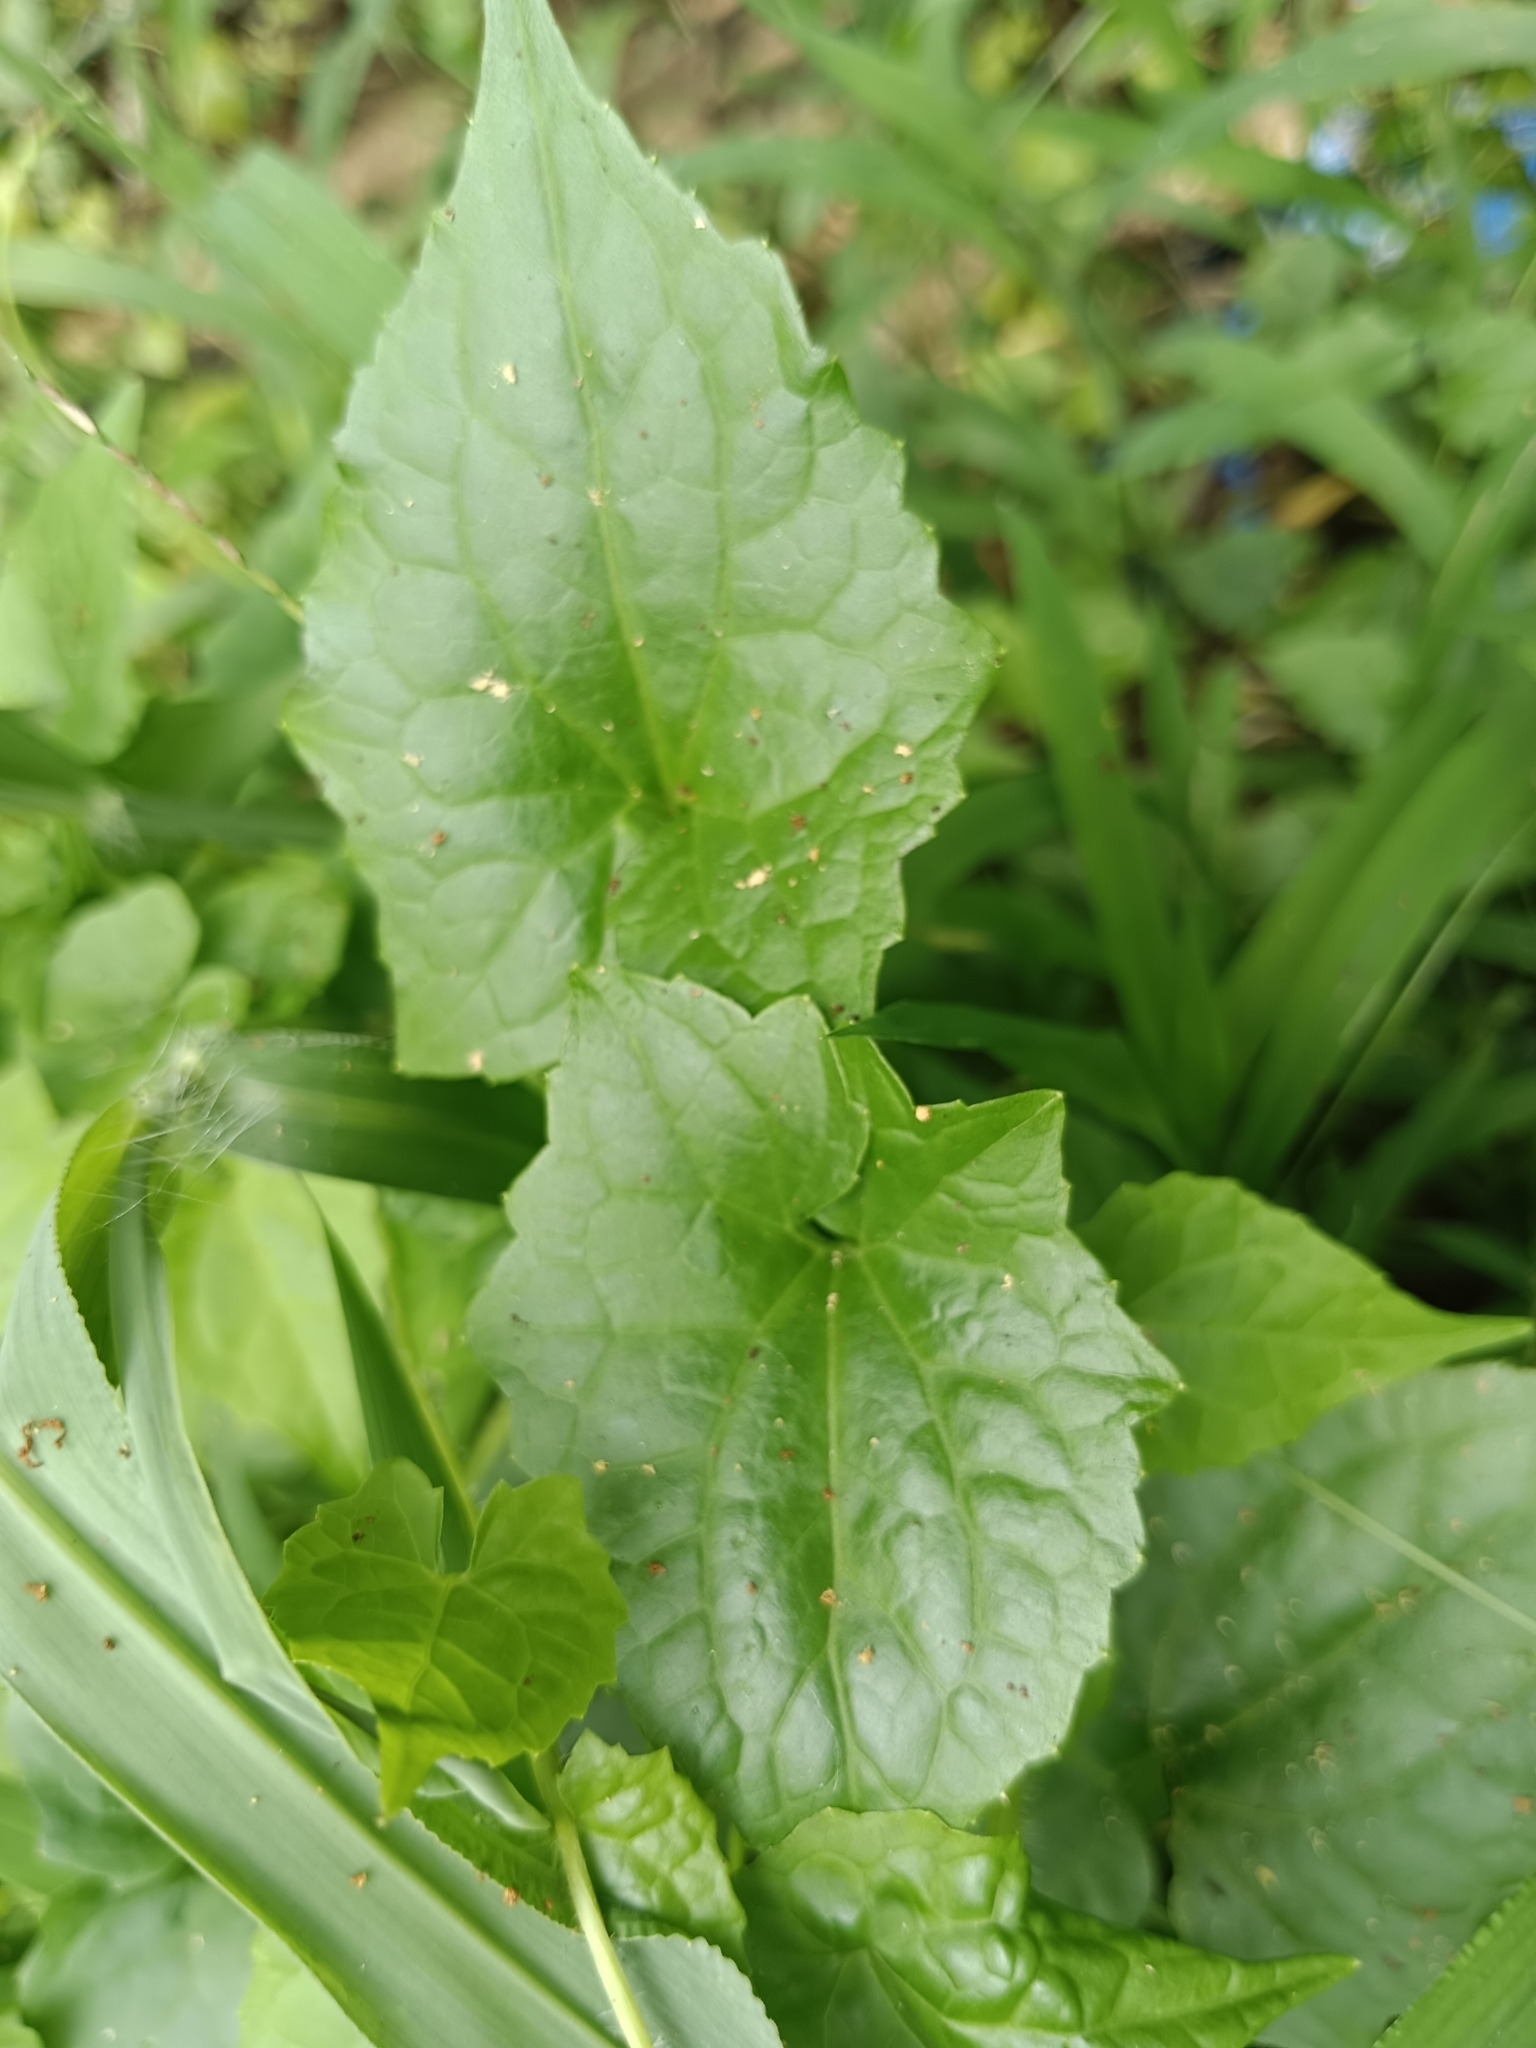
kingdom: Plantae
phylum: Tracheophyta
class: Magnoliopsida
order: Asterales
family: Asteraceae
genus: Mikania
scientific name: Mikania micrantha
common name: Mile-a-minute
